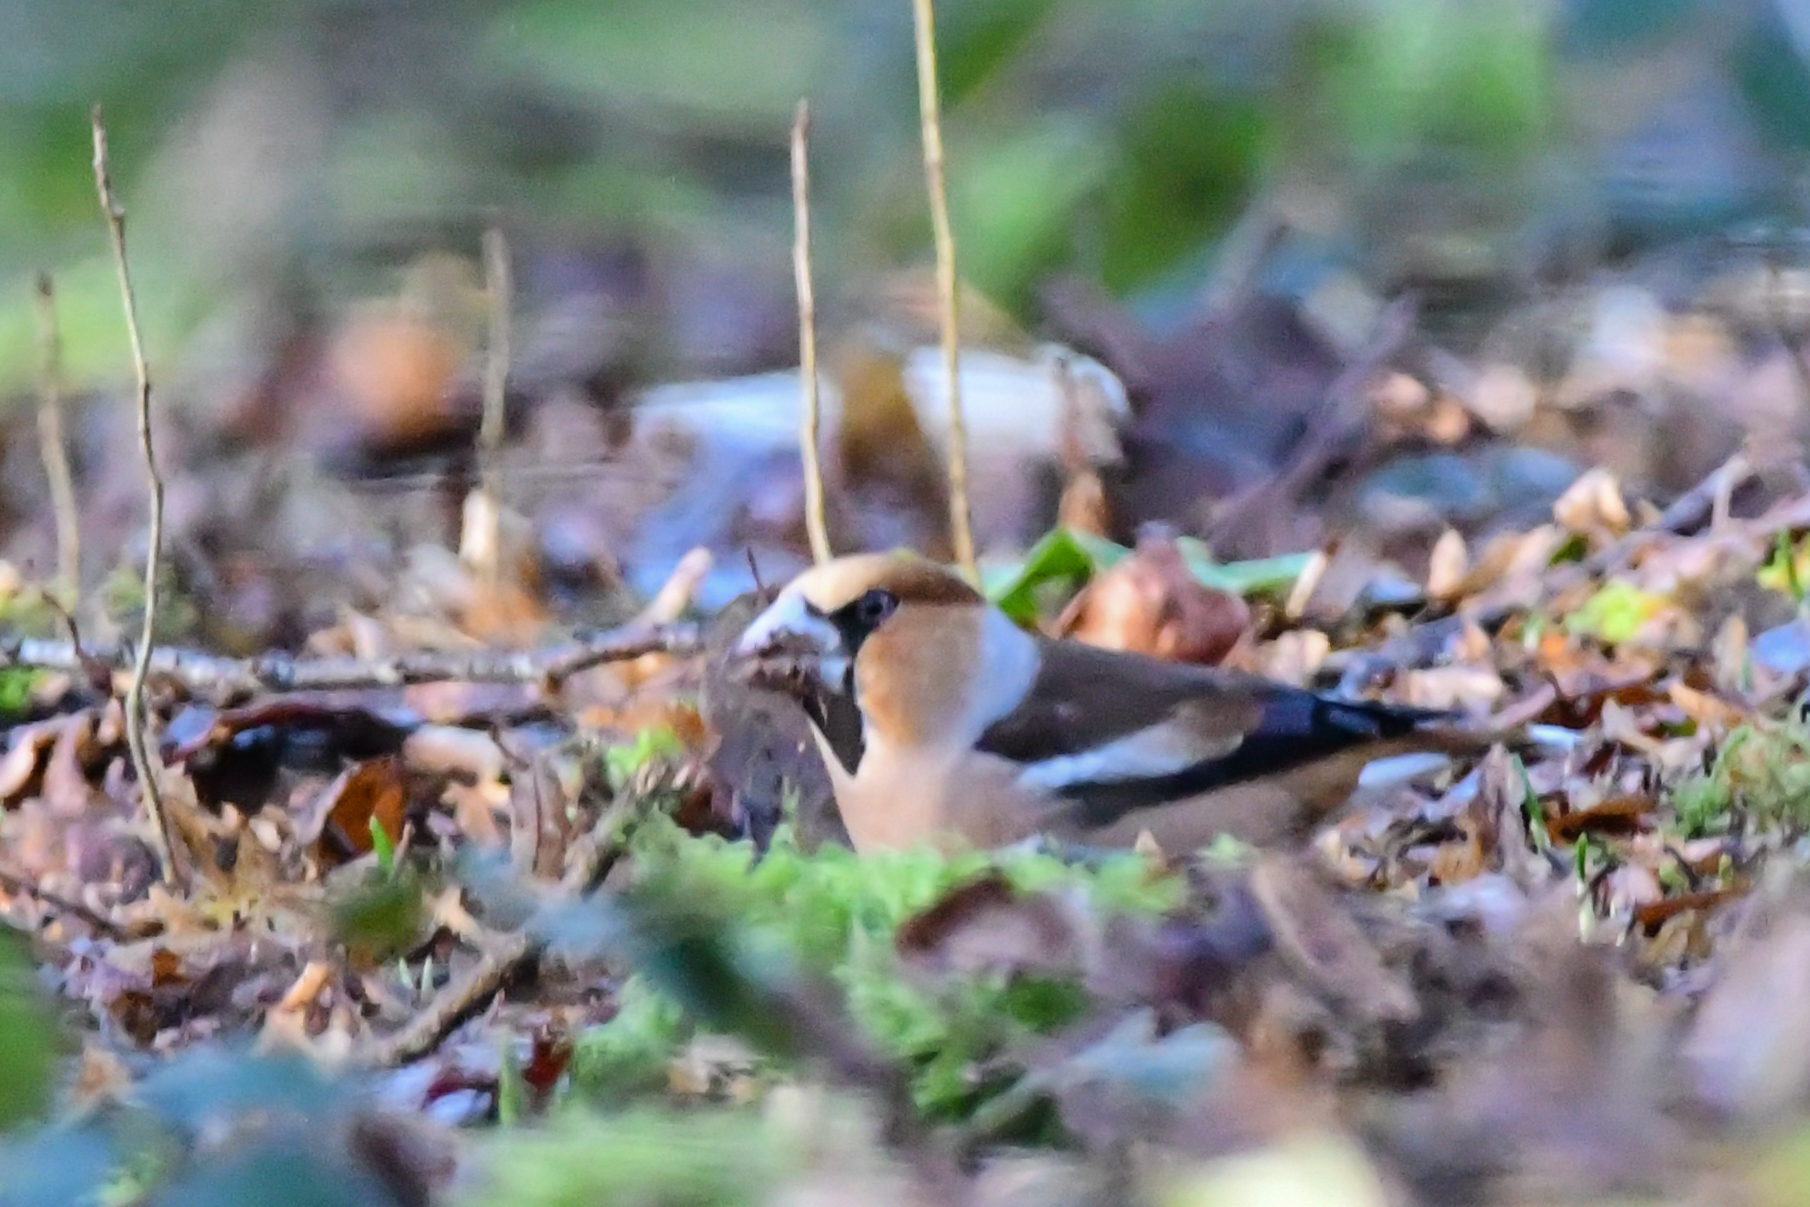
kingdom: Animalia
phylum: Chordata
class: Aves
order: Passeriformes
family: Fringillidae
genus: Coccothraustes
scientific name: Coccothraustes coccothraustes
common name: Hawfinch
